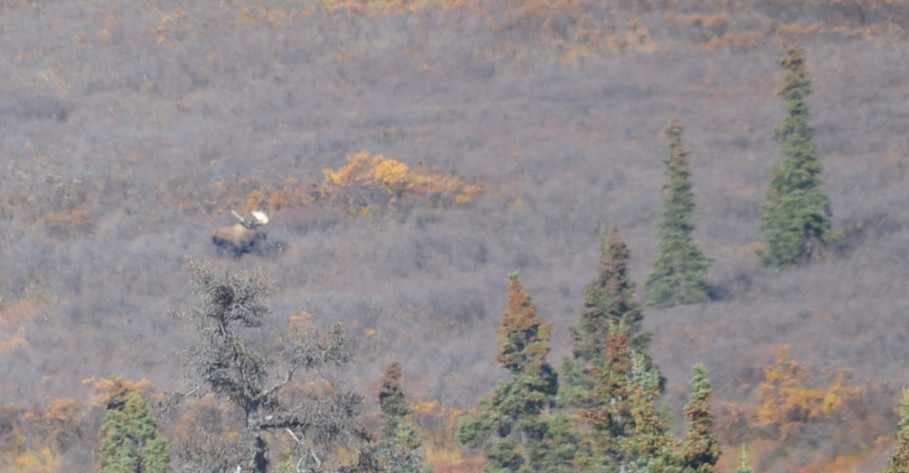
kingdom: Animalia
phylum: Chordata
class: Mammalia
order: Artiodactyla
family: Cervidae
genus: Alces
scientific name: Alces alces
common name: Moose
